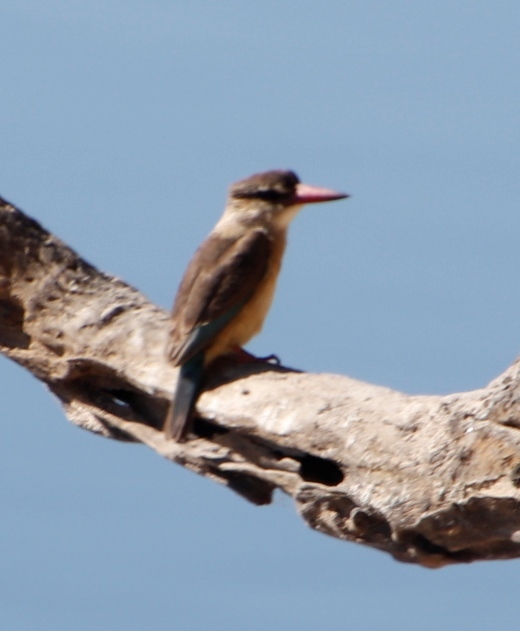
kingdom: Animalia
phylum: Chordata
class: Aves
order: Coraciiformes
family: Alcedinidae
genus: Halcyon
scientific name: Halcyon albiventris
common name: Brown-hooded kingfisher
